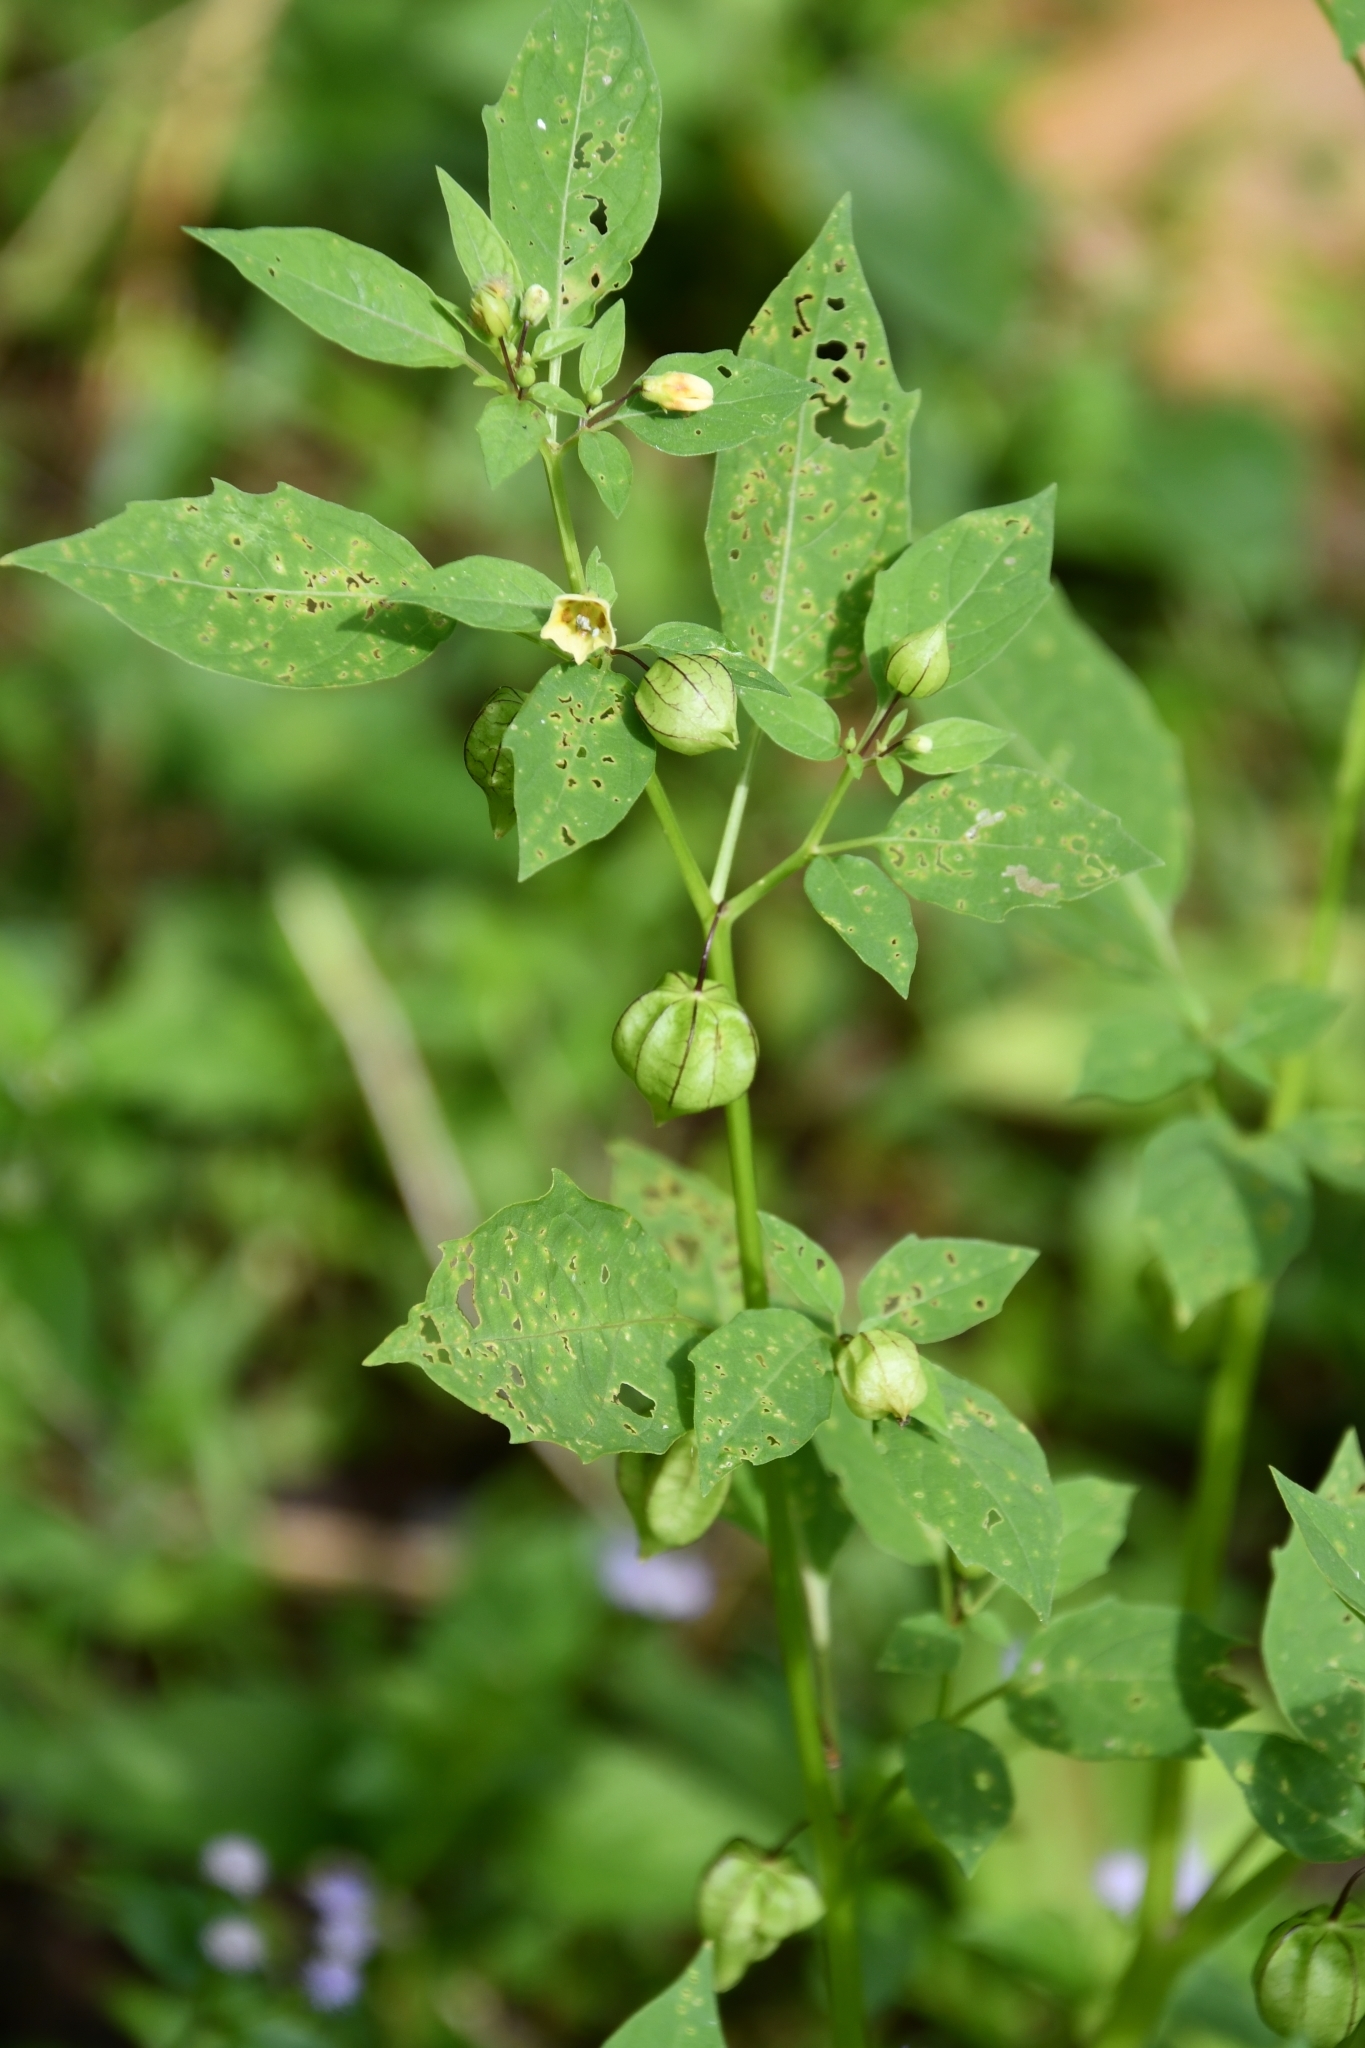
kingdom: Plantae
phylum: Tracheophyta
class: Magnoliopsida
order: Solanales
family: Solanaceae
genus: Physalis
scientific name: Physalis angulata
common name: Angular winter-cherry
